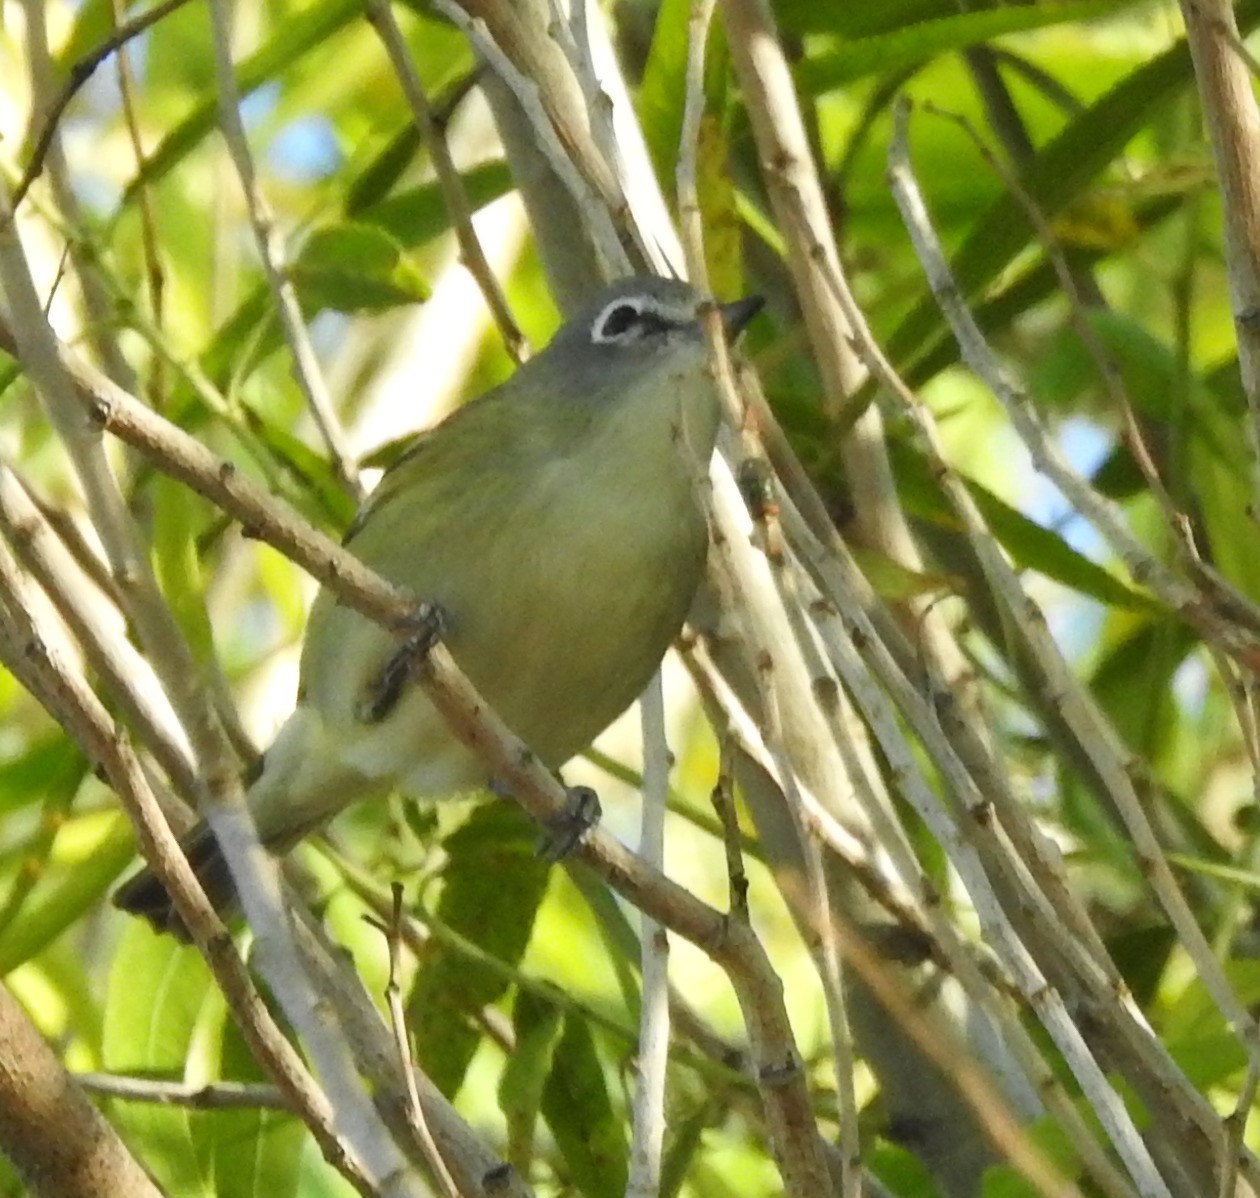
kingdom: Animalia
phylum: Chordata
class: Aves
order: Passeriformes
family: Vireonidae
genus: Vireo
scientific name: Vireo cassinii
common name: Cassin's vireo
